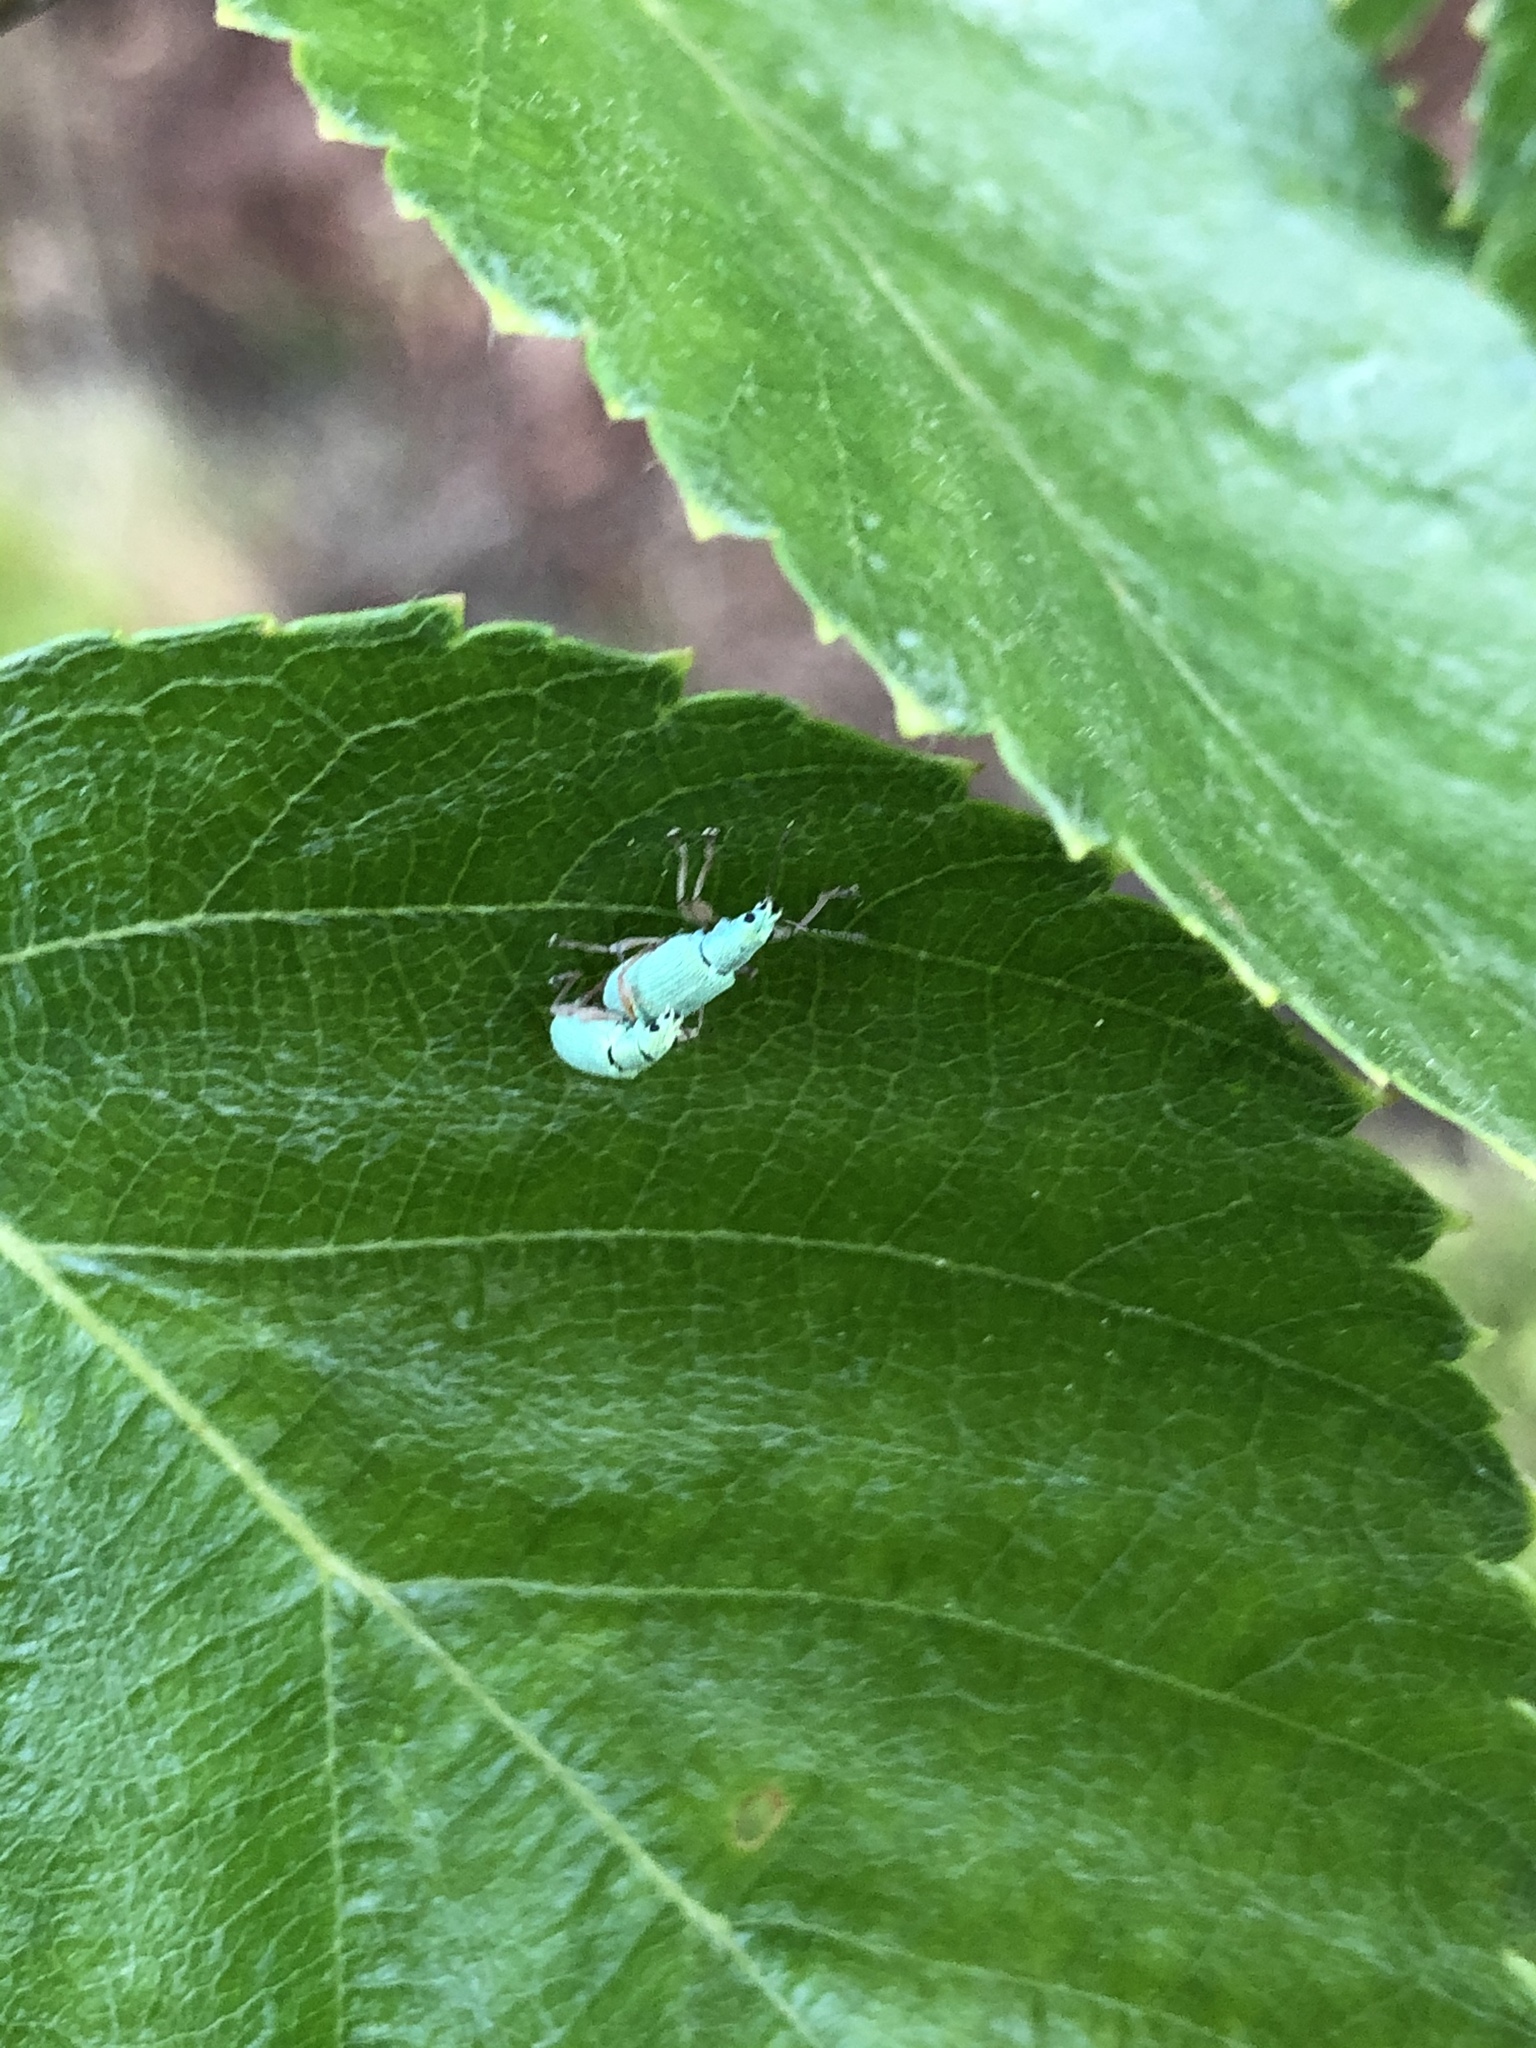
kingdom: Animalia
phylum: Arthropoda
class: Insecta
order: Coleoptera
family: Curculionidae
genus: Polydrusus
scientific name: Polydrusus impressifrons
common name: Weevil
